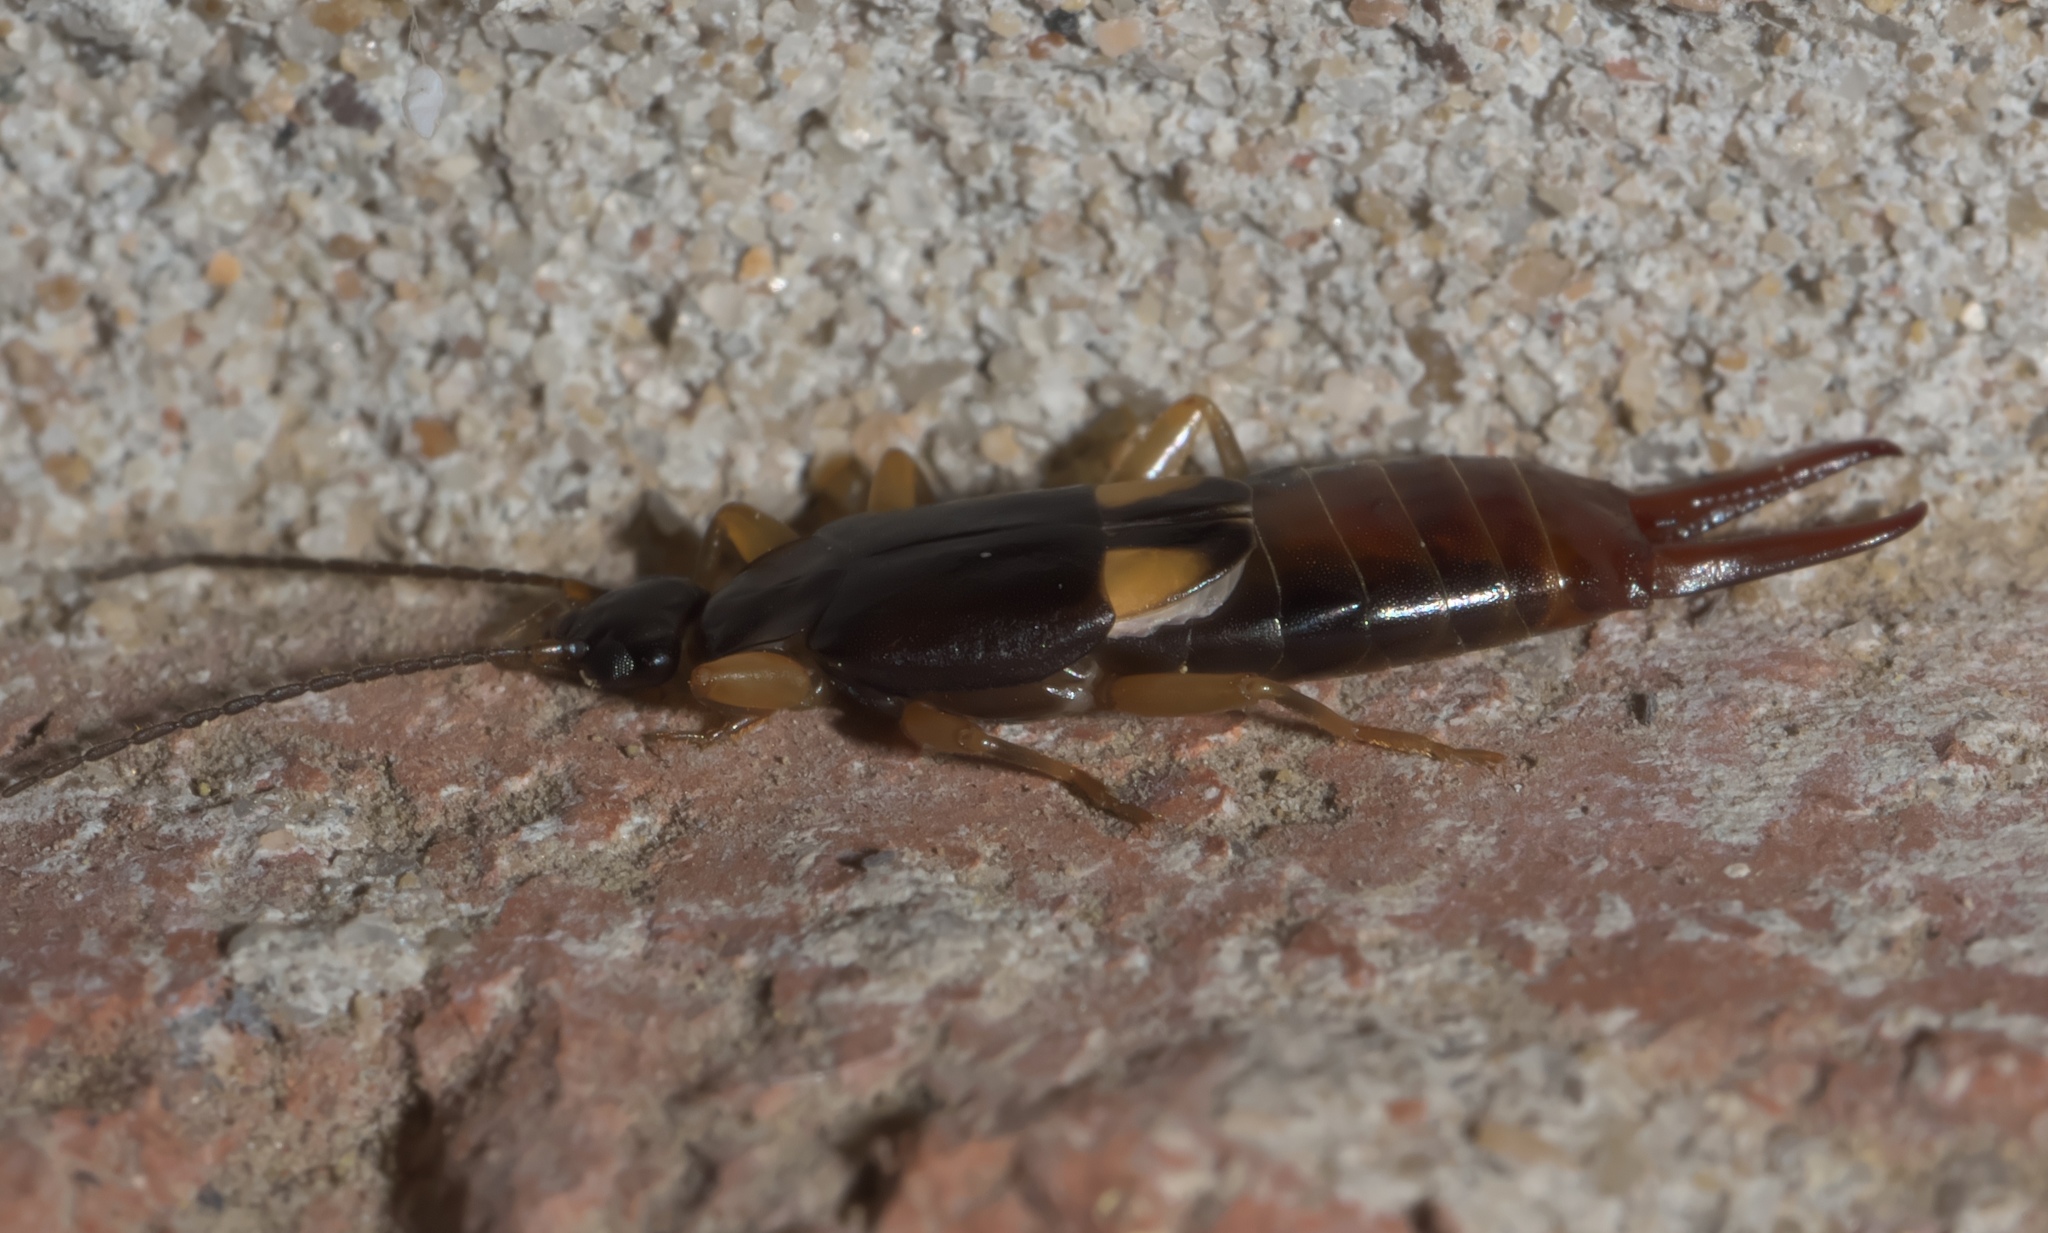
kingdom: Animalia
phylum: Arthropoda
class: Insecta
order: Dermaptera
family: Spongiphoridae
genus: Vostox
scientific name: Vostox brunneipennis
